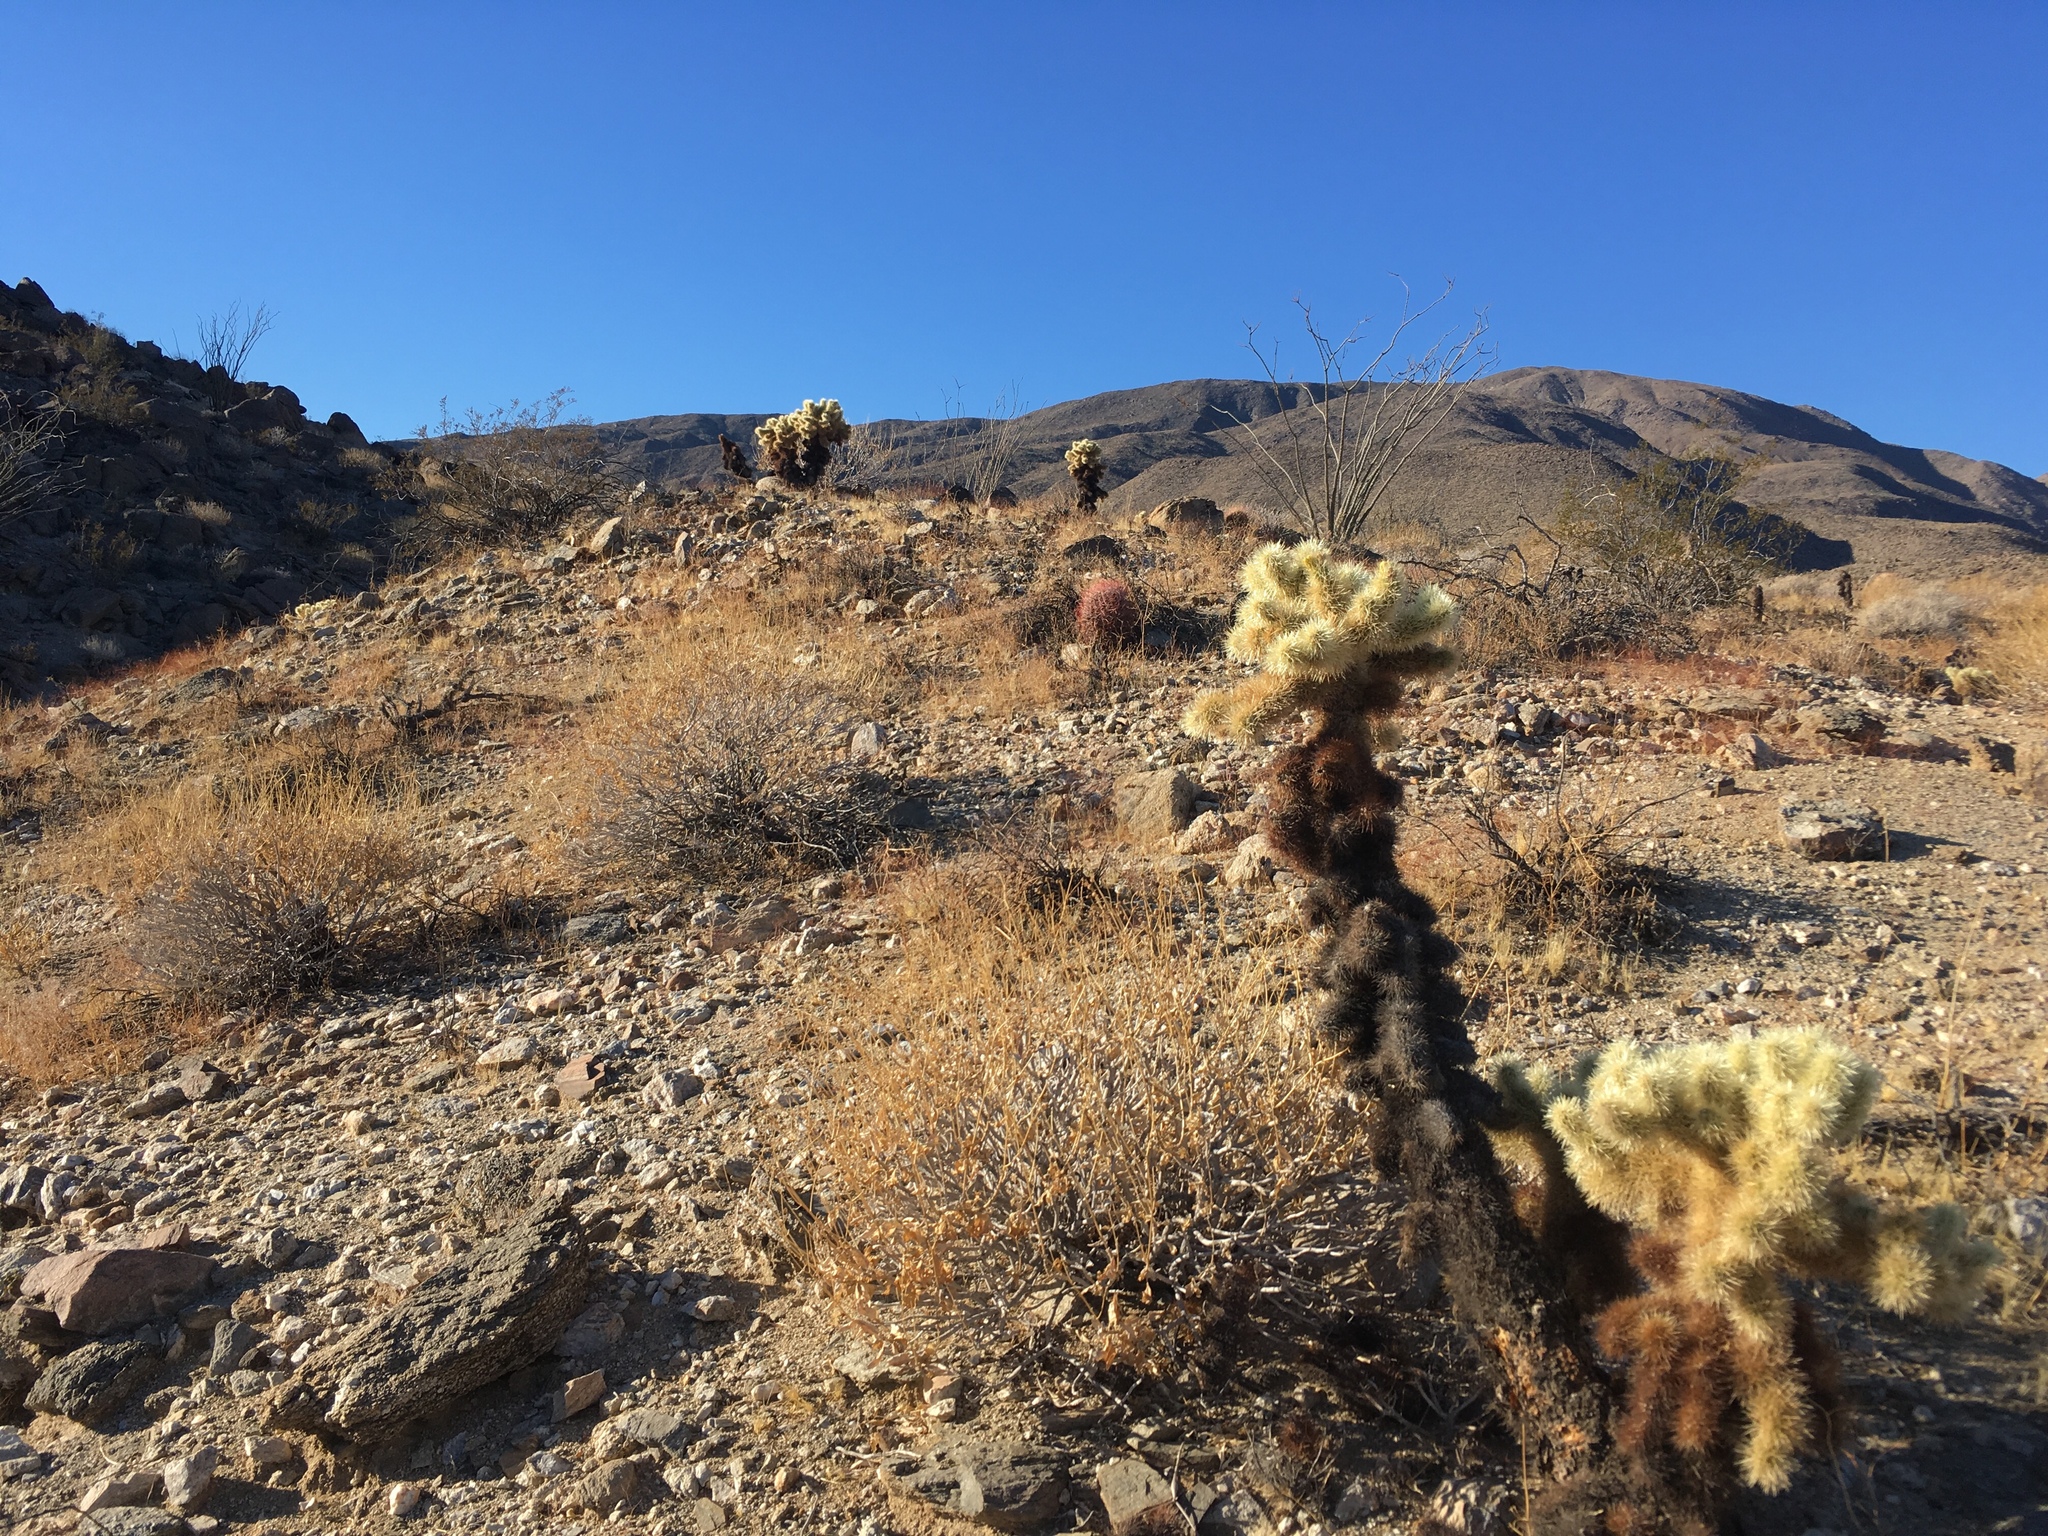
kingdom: Plantae
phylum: Tracheophyta
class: Magnoliopsida
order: Caryophyllales
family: Cactaceae
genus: Cylindropuntia
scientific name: Cylindropuntia fosbergii
